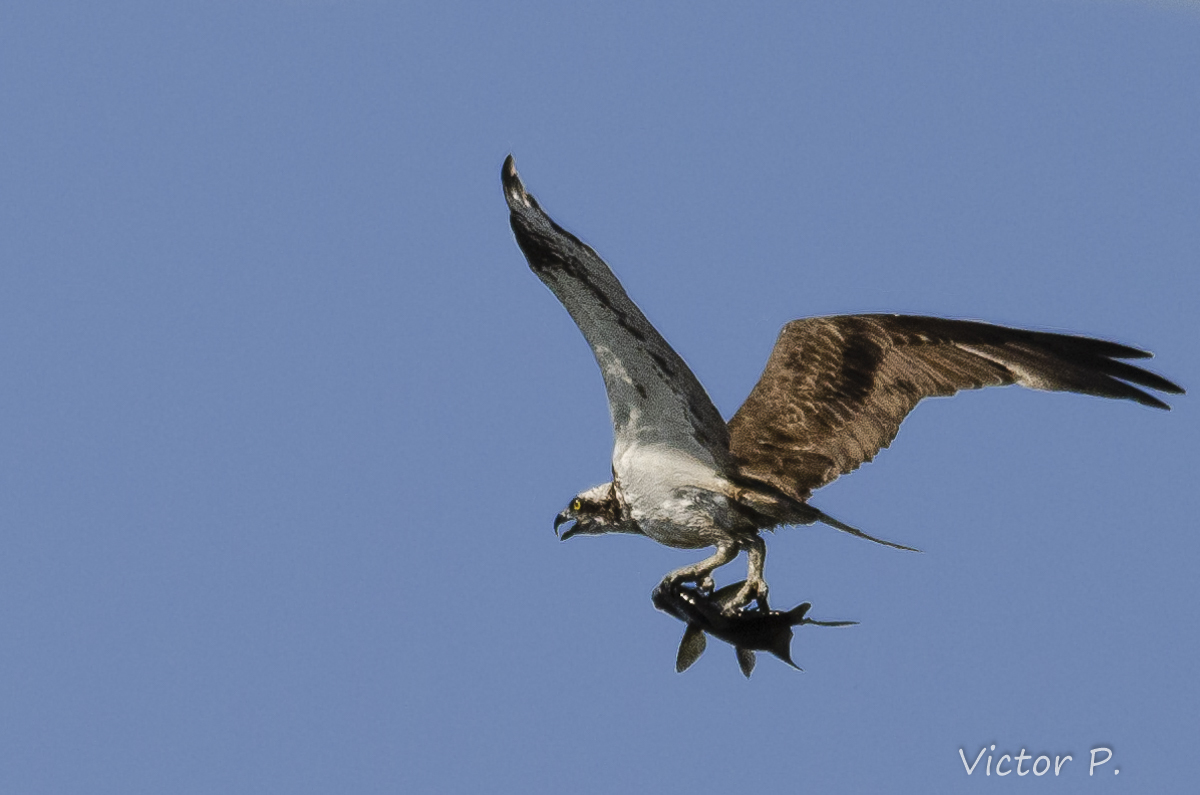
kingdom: Animalia
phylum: Chordata
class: Aves
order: Accipitriformes
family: Pandionidae
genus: Pandion
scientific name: Pandion haliaetus
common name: Osprey
